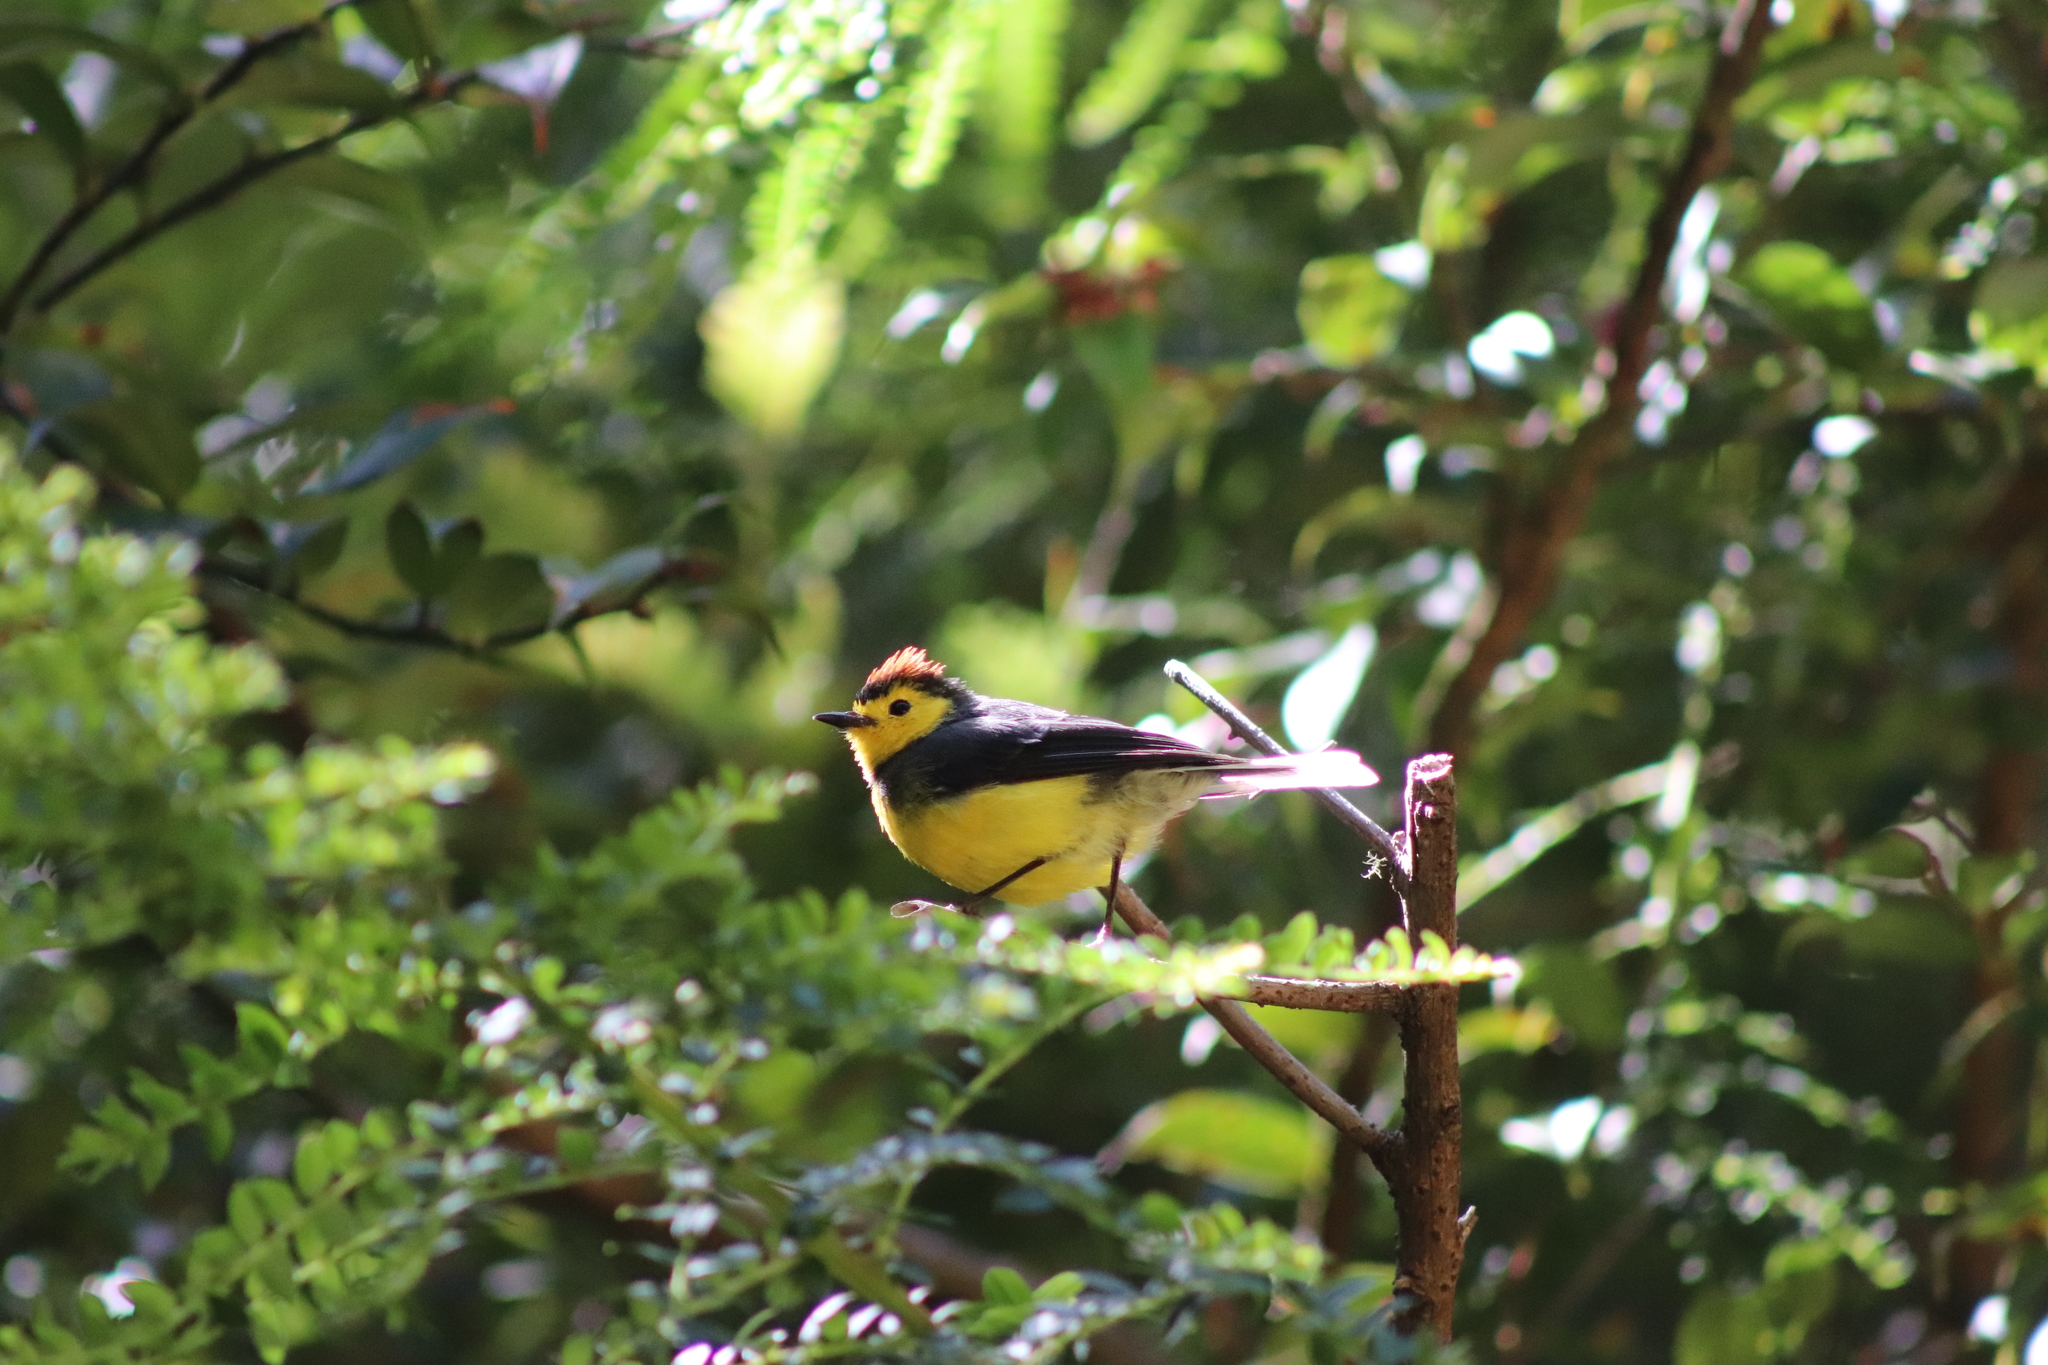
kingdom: Animalia
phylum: Chordata
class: Aves
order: Passeriformes
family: Parulidae
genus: Myioborus
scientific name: Myioborus torquatus
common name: Collared whitestart
